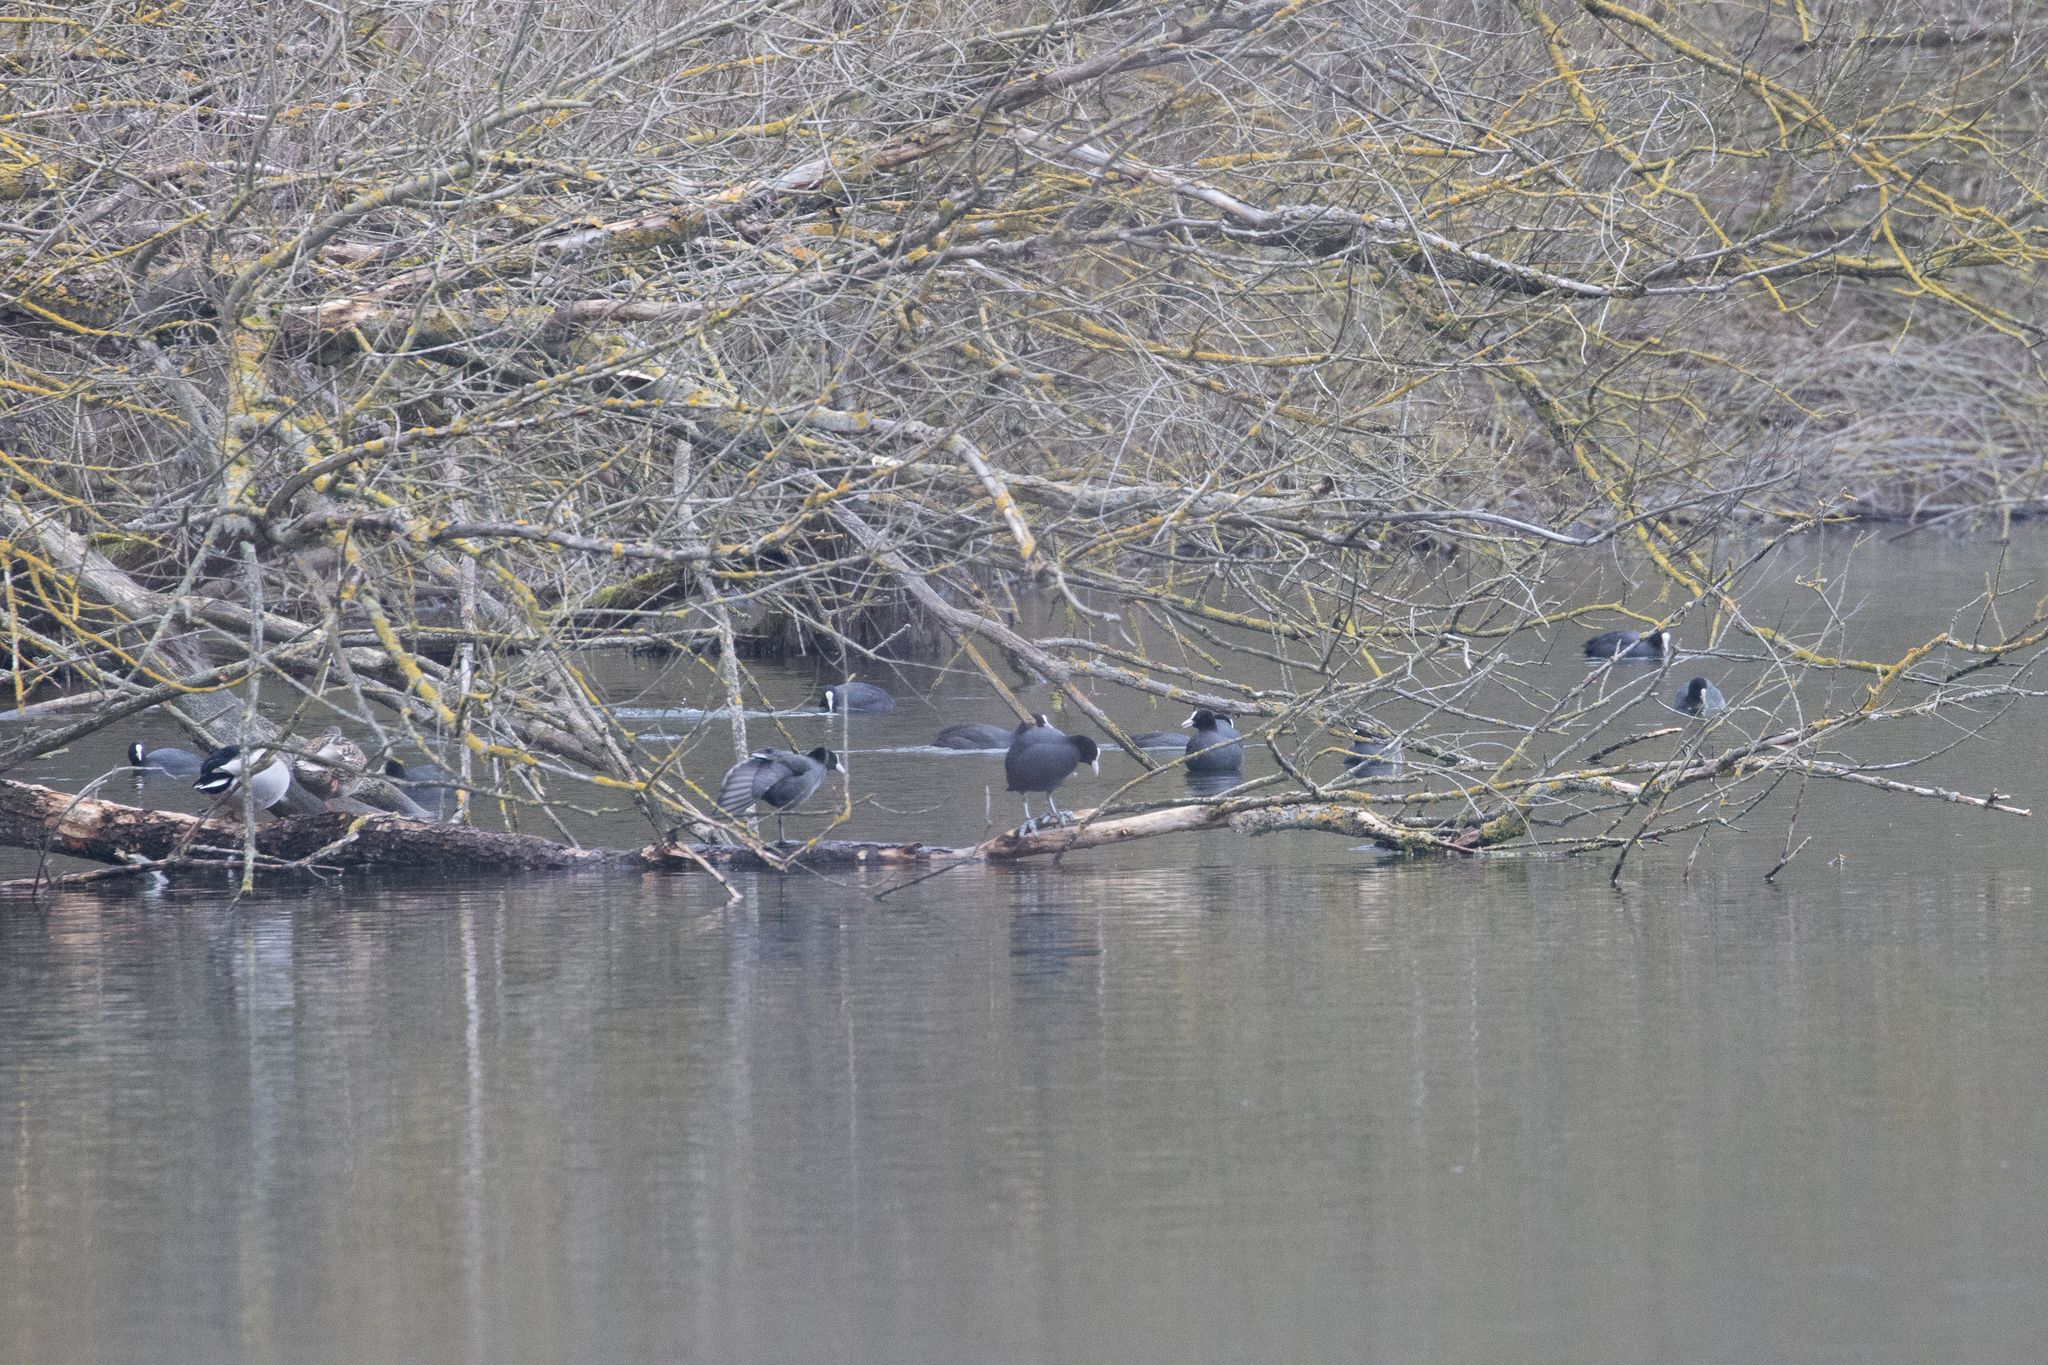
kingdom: Animalia
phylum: Chordata
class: Aves
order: Gruiformes
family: Rallidae
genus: Fulica
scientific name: Fulica atra
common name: Eurasian coot
